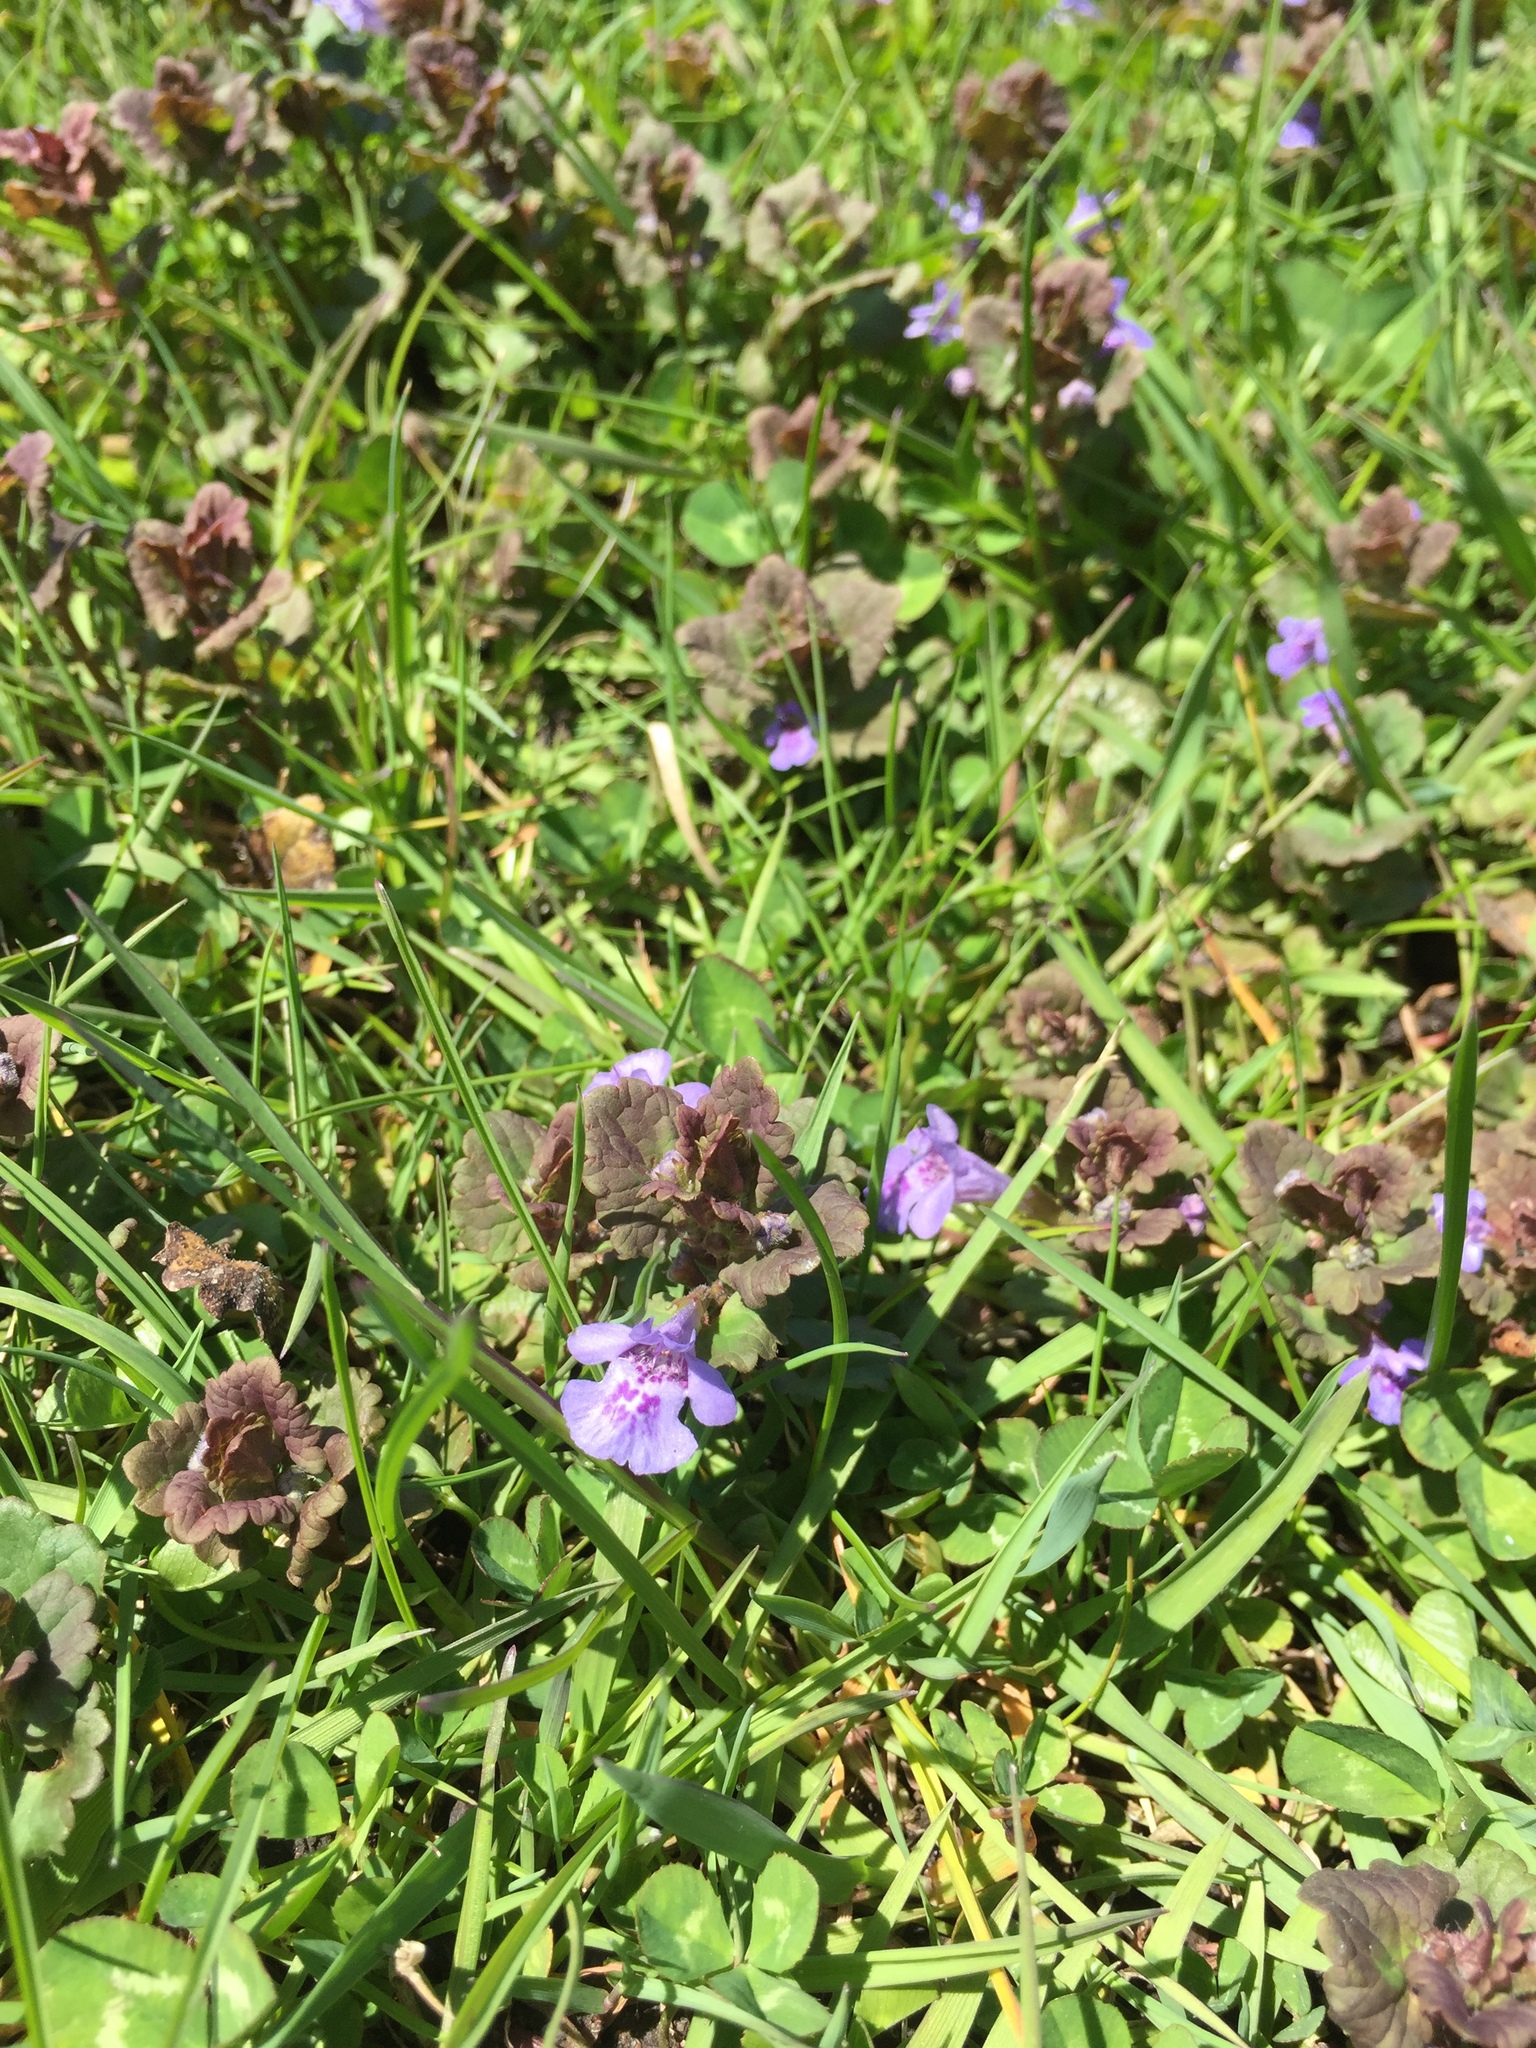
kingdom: Plantae
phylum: Tracheophyta
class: Magnoliopsida
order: Lamiales
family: Lamiaceae
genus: Glechoma
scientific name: Glechoma hederacea
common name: Ground ivy
